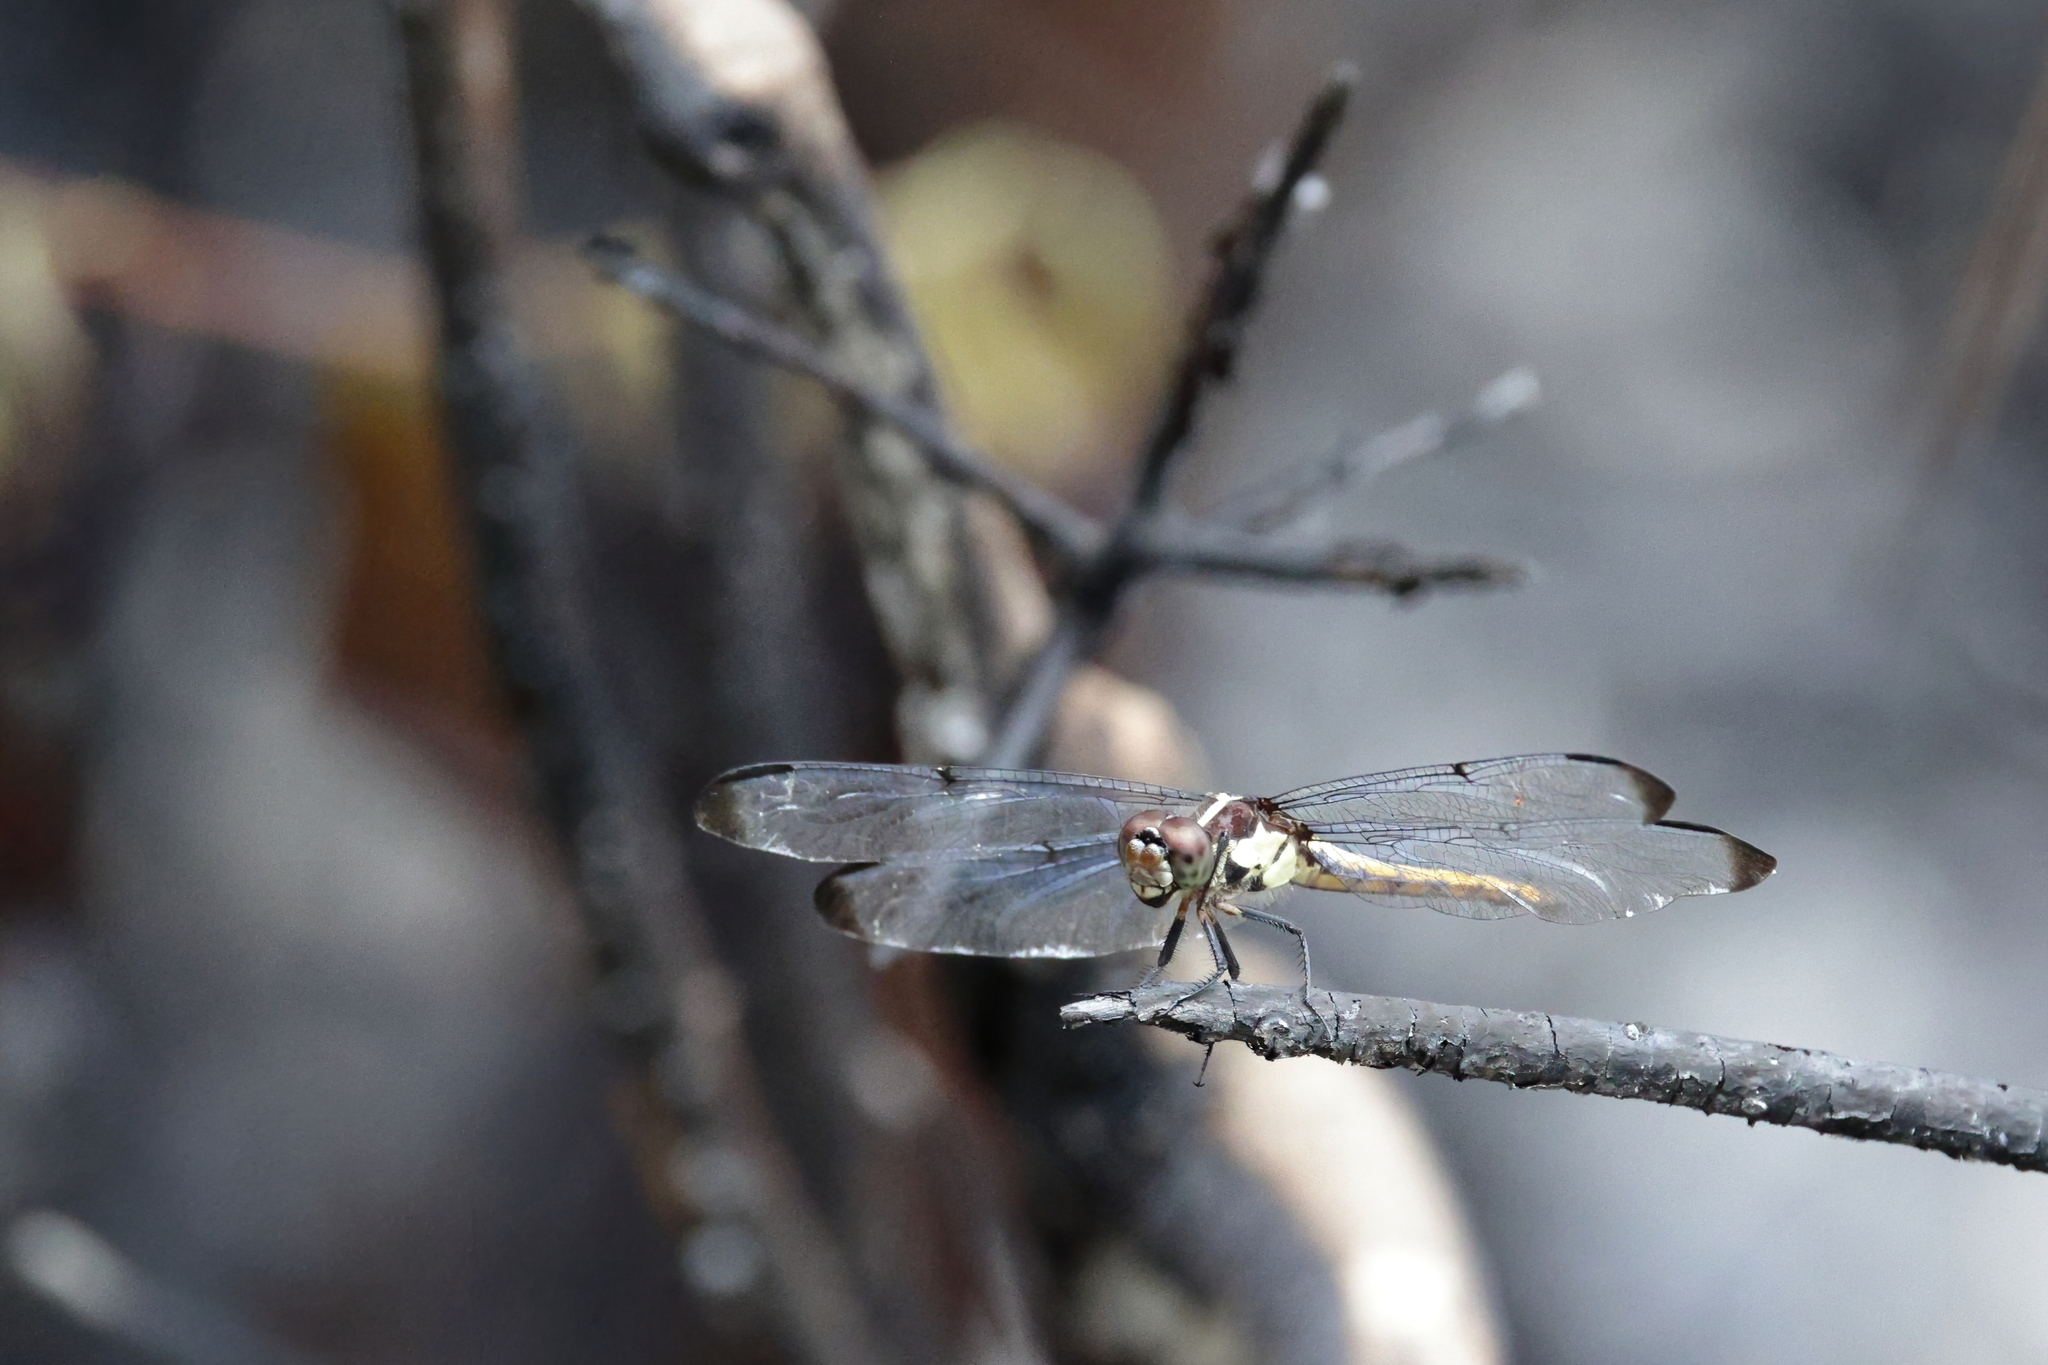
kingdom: Animalia
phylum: Arthropoda
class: Insecta
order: Odonata
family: Libellulidae
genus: Libellula
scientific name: Libellula incesta
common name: Slaty skimmer
